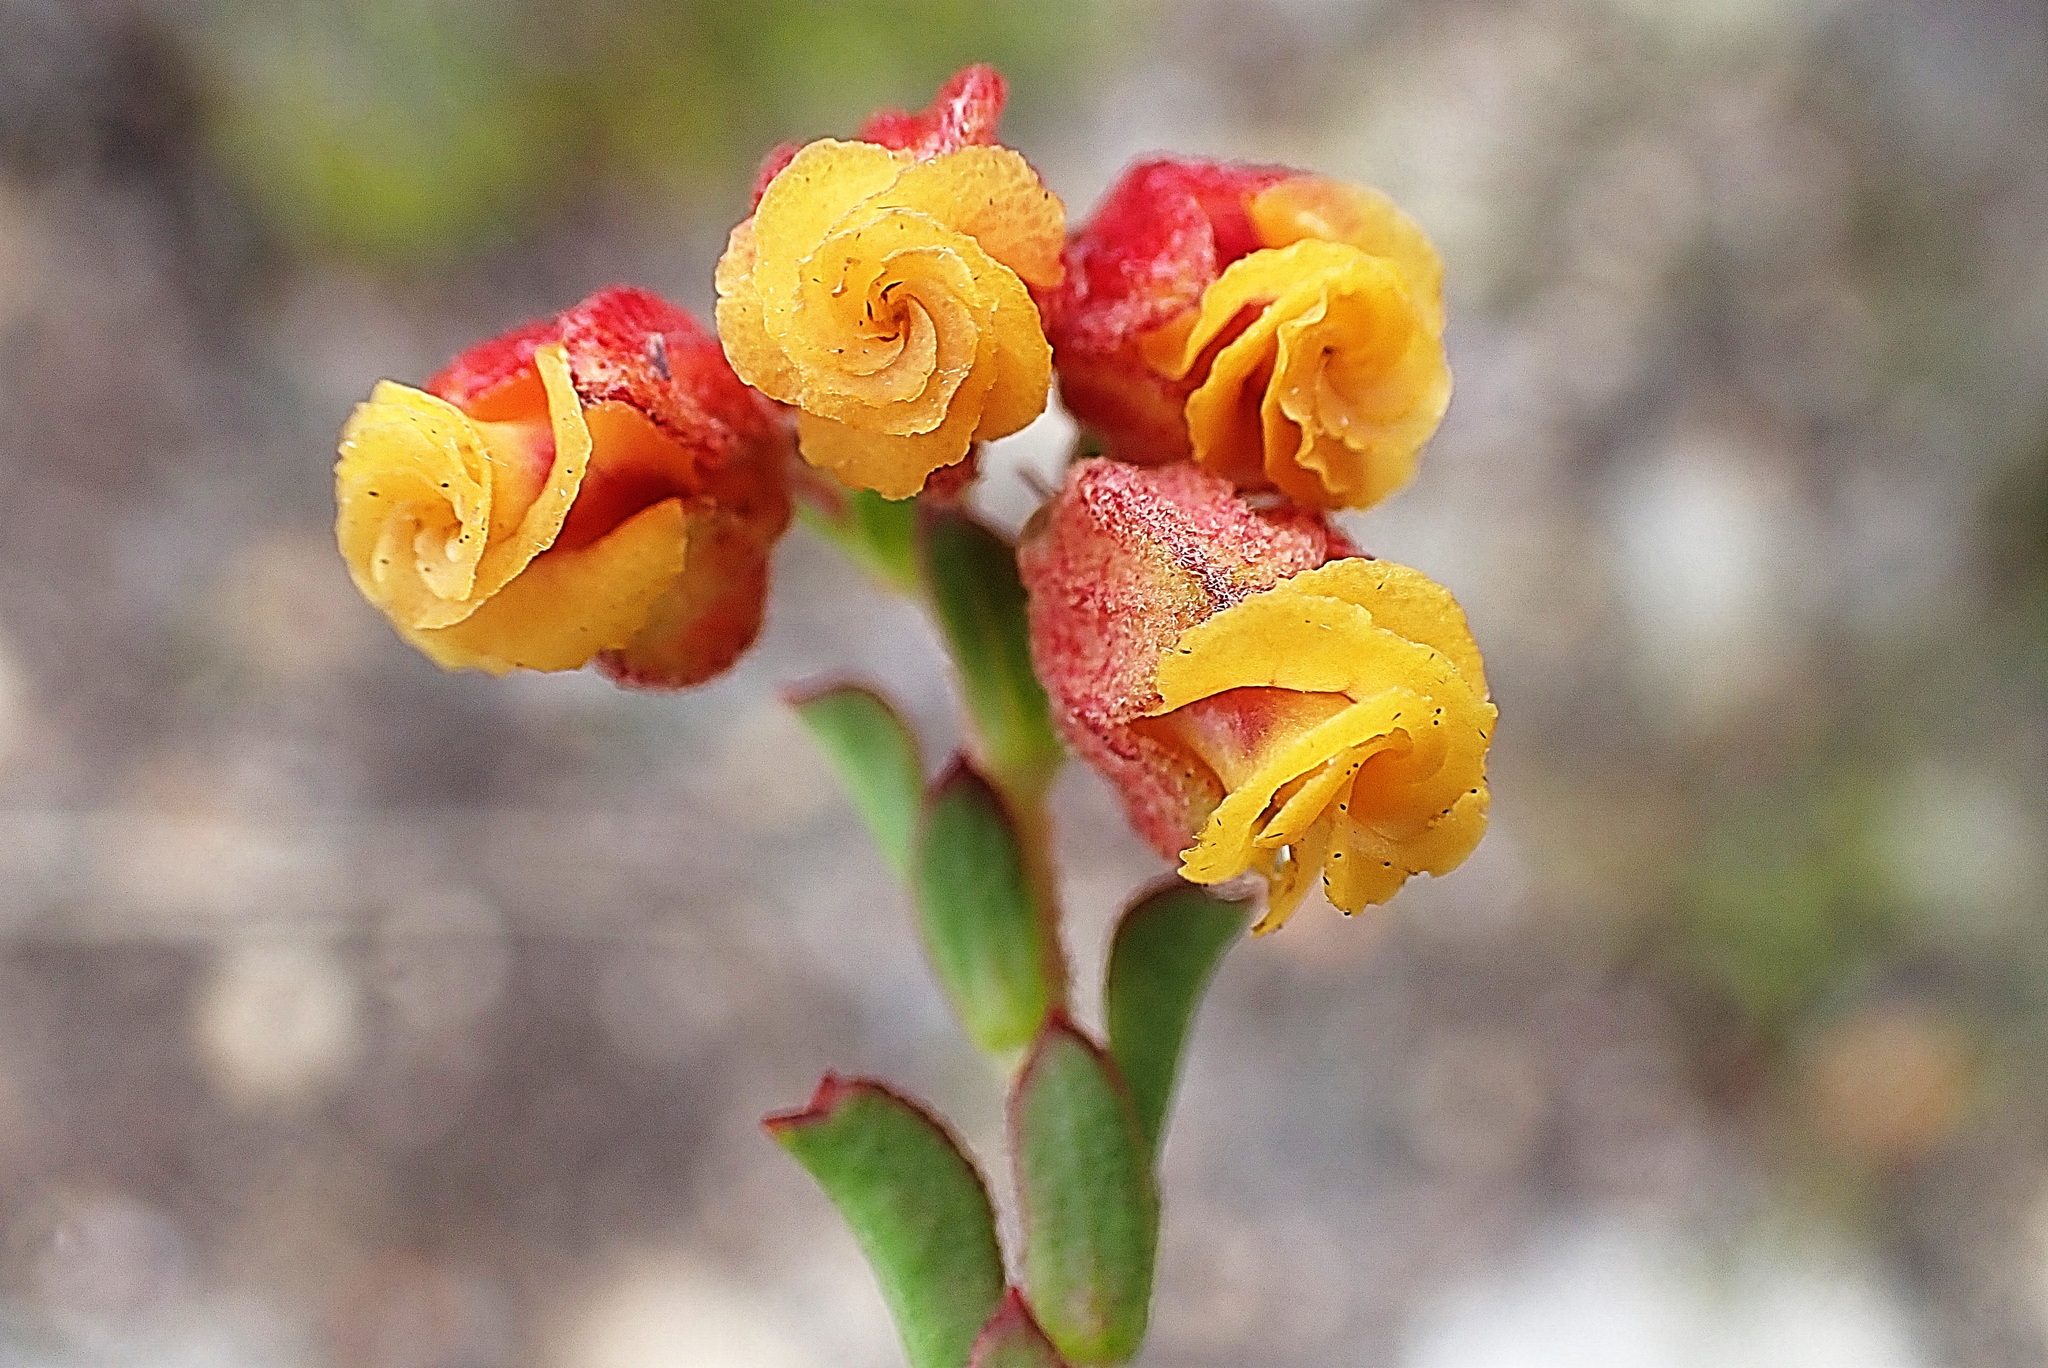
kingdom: Plantae
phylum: Tracheophyta
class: Magnoliopsida
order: Malvales
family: Malvaceae
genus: Hermannia
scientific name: Hermannia concinnifolia
